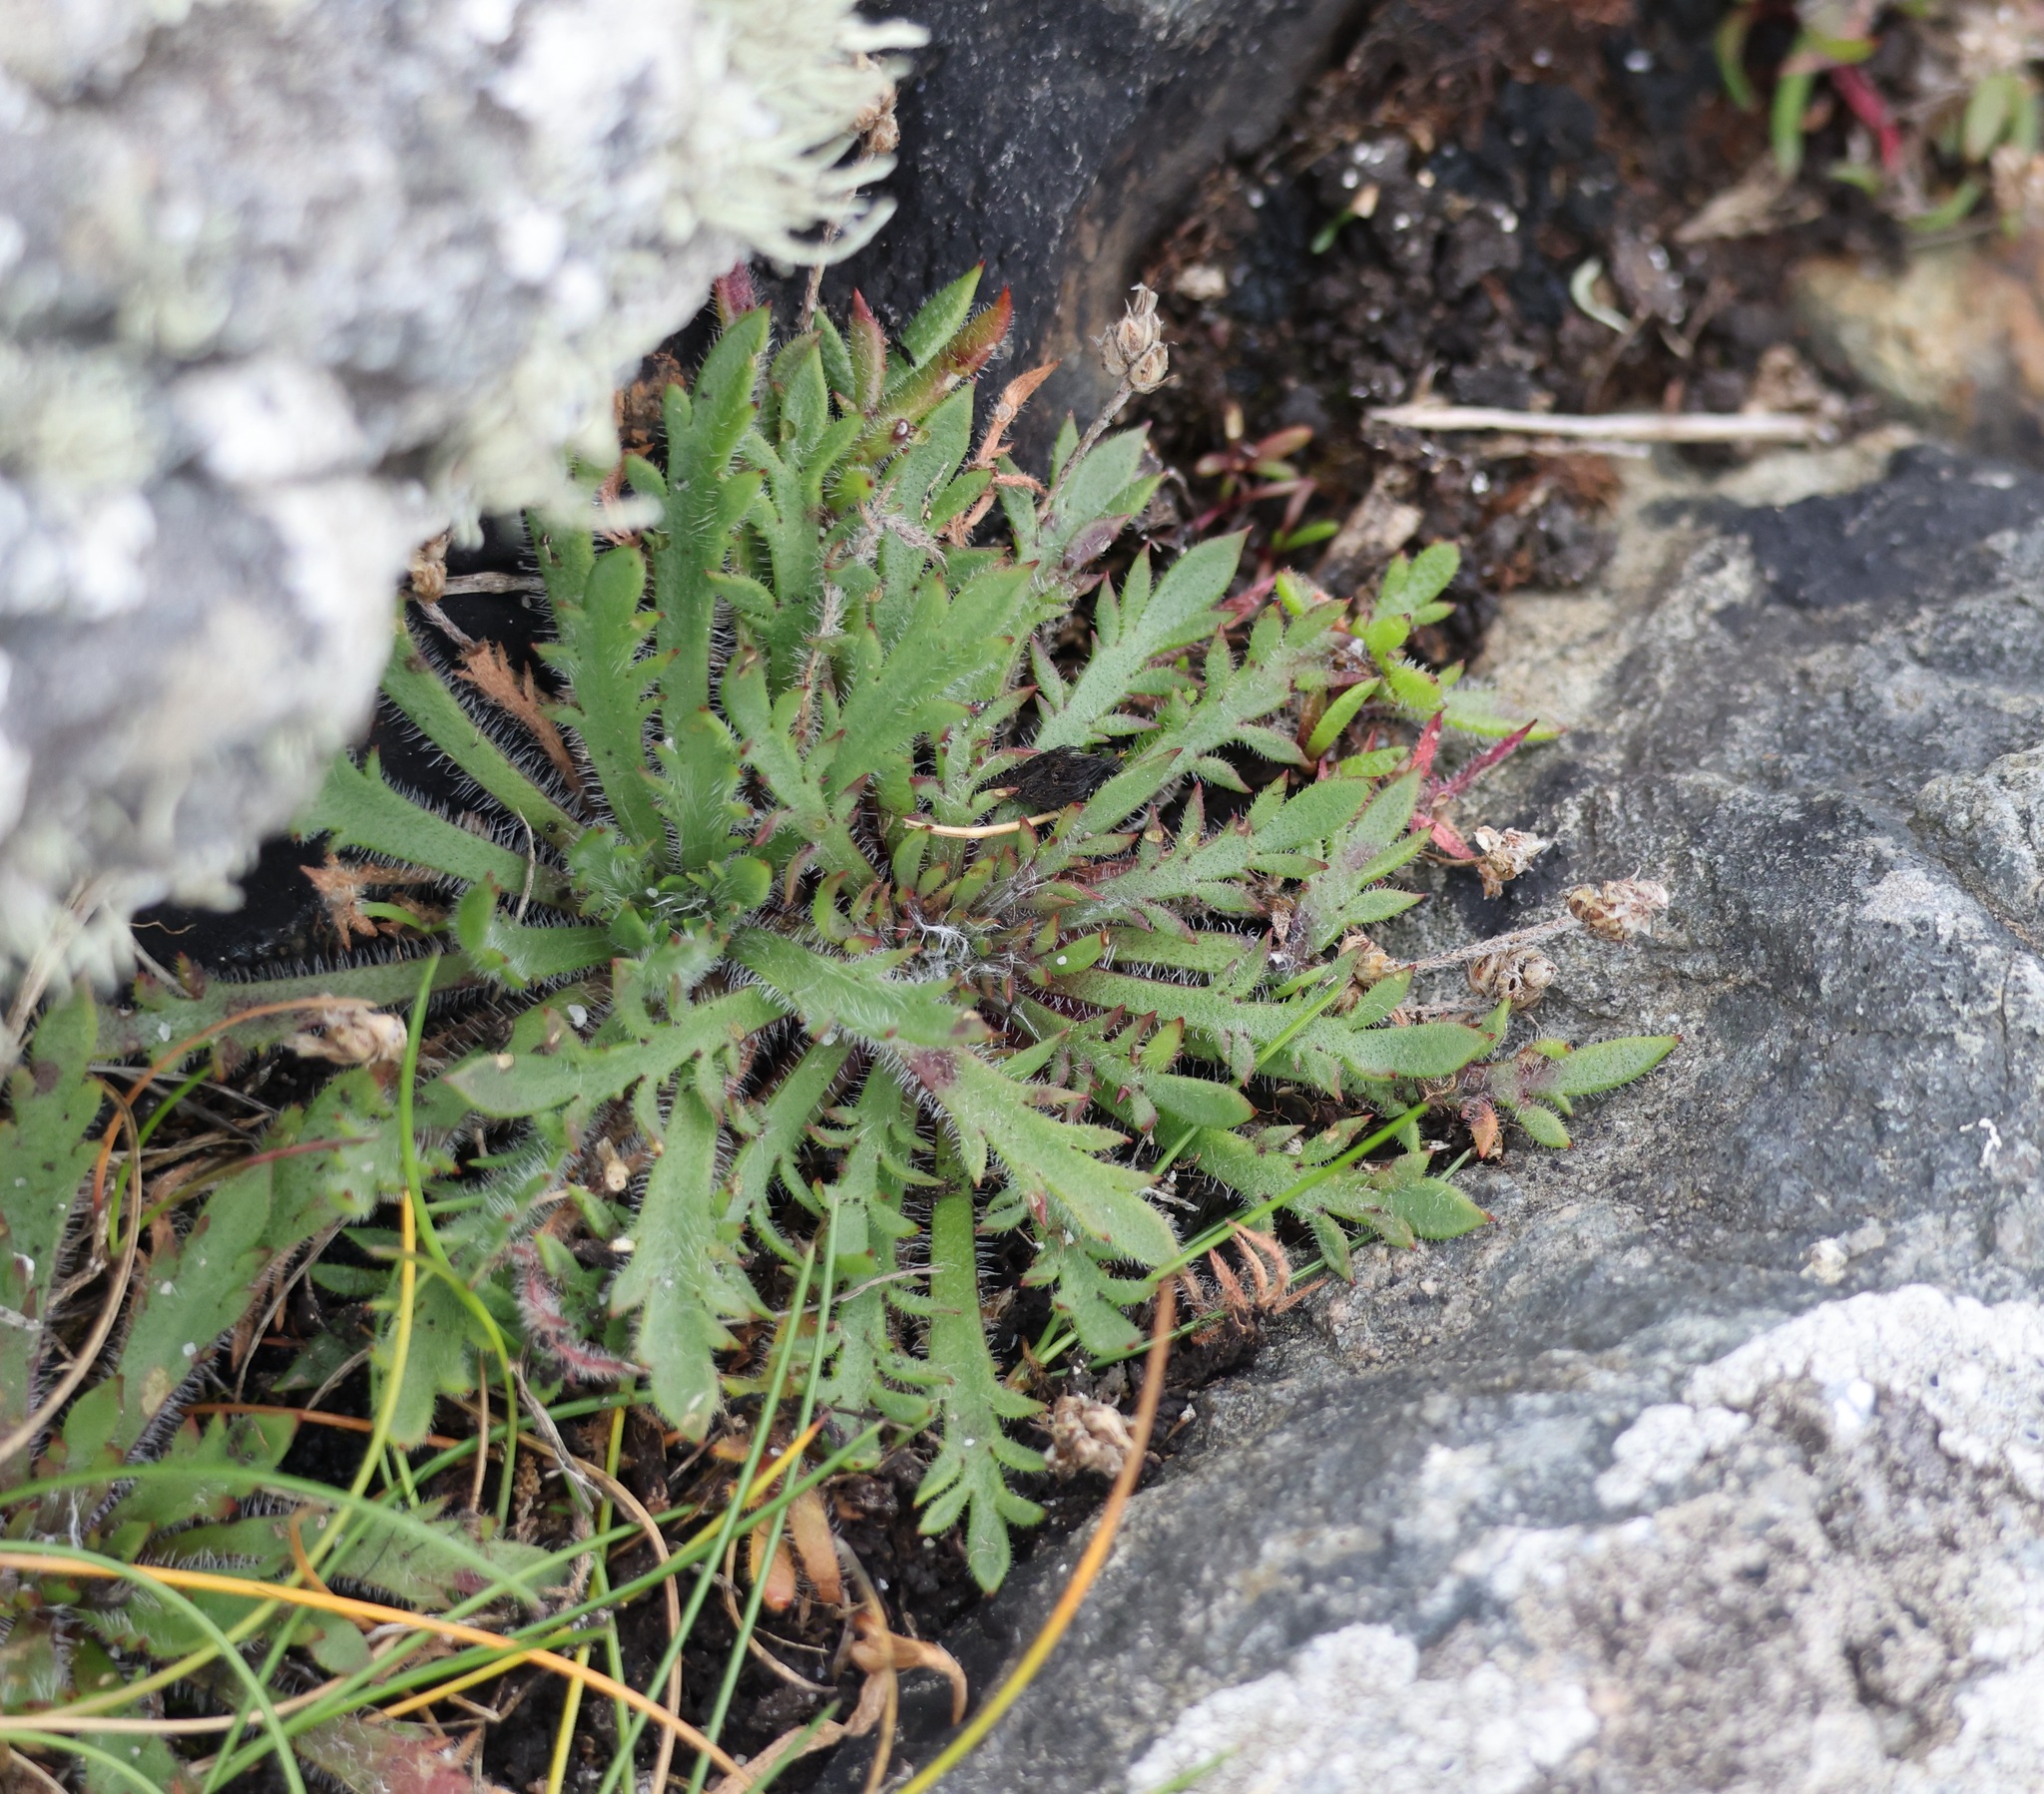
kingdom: Plantae
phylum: Tracheophyta
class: Magnoliopsida
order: Lamiales
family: Plantaginaceae
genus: Plantago
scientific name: Plantago coronopus
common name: Buck's-horn plantain
